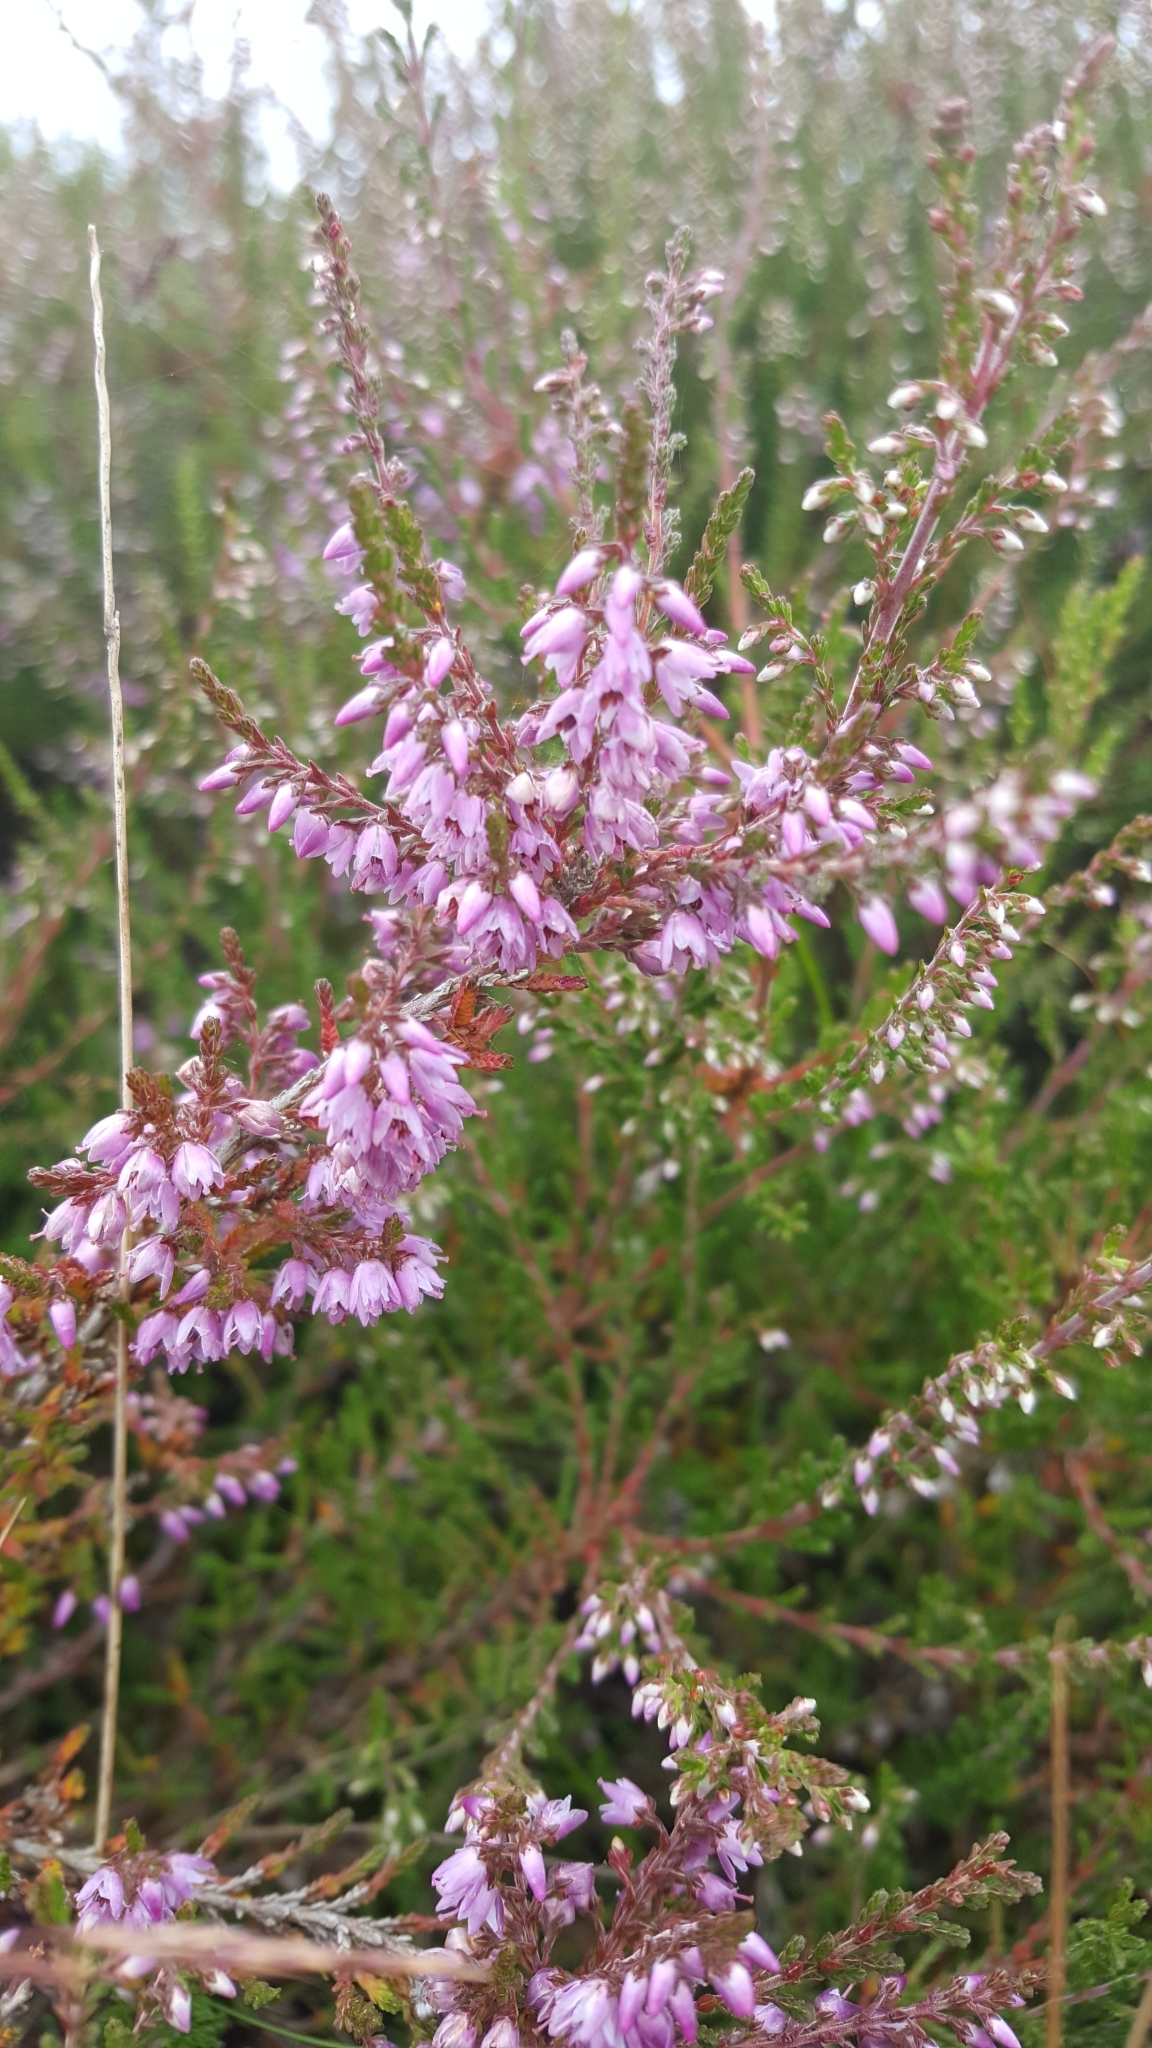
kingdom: Plantae
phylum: Tracheophyta
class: Magnoliopsida
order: Ericales
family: Ericaceae
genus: Calluna
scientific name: Calluna vulgaris
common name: Heather
